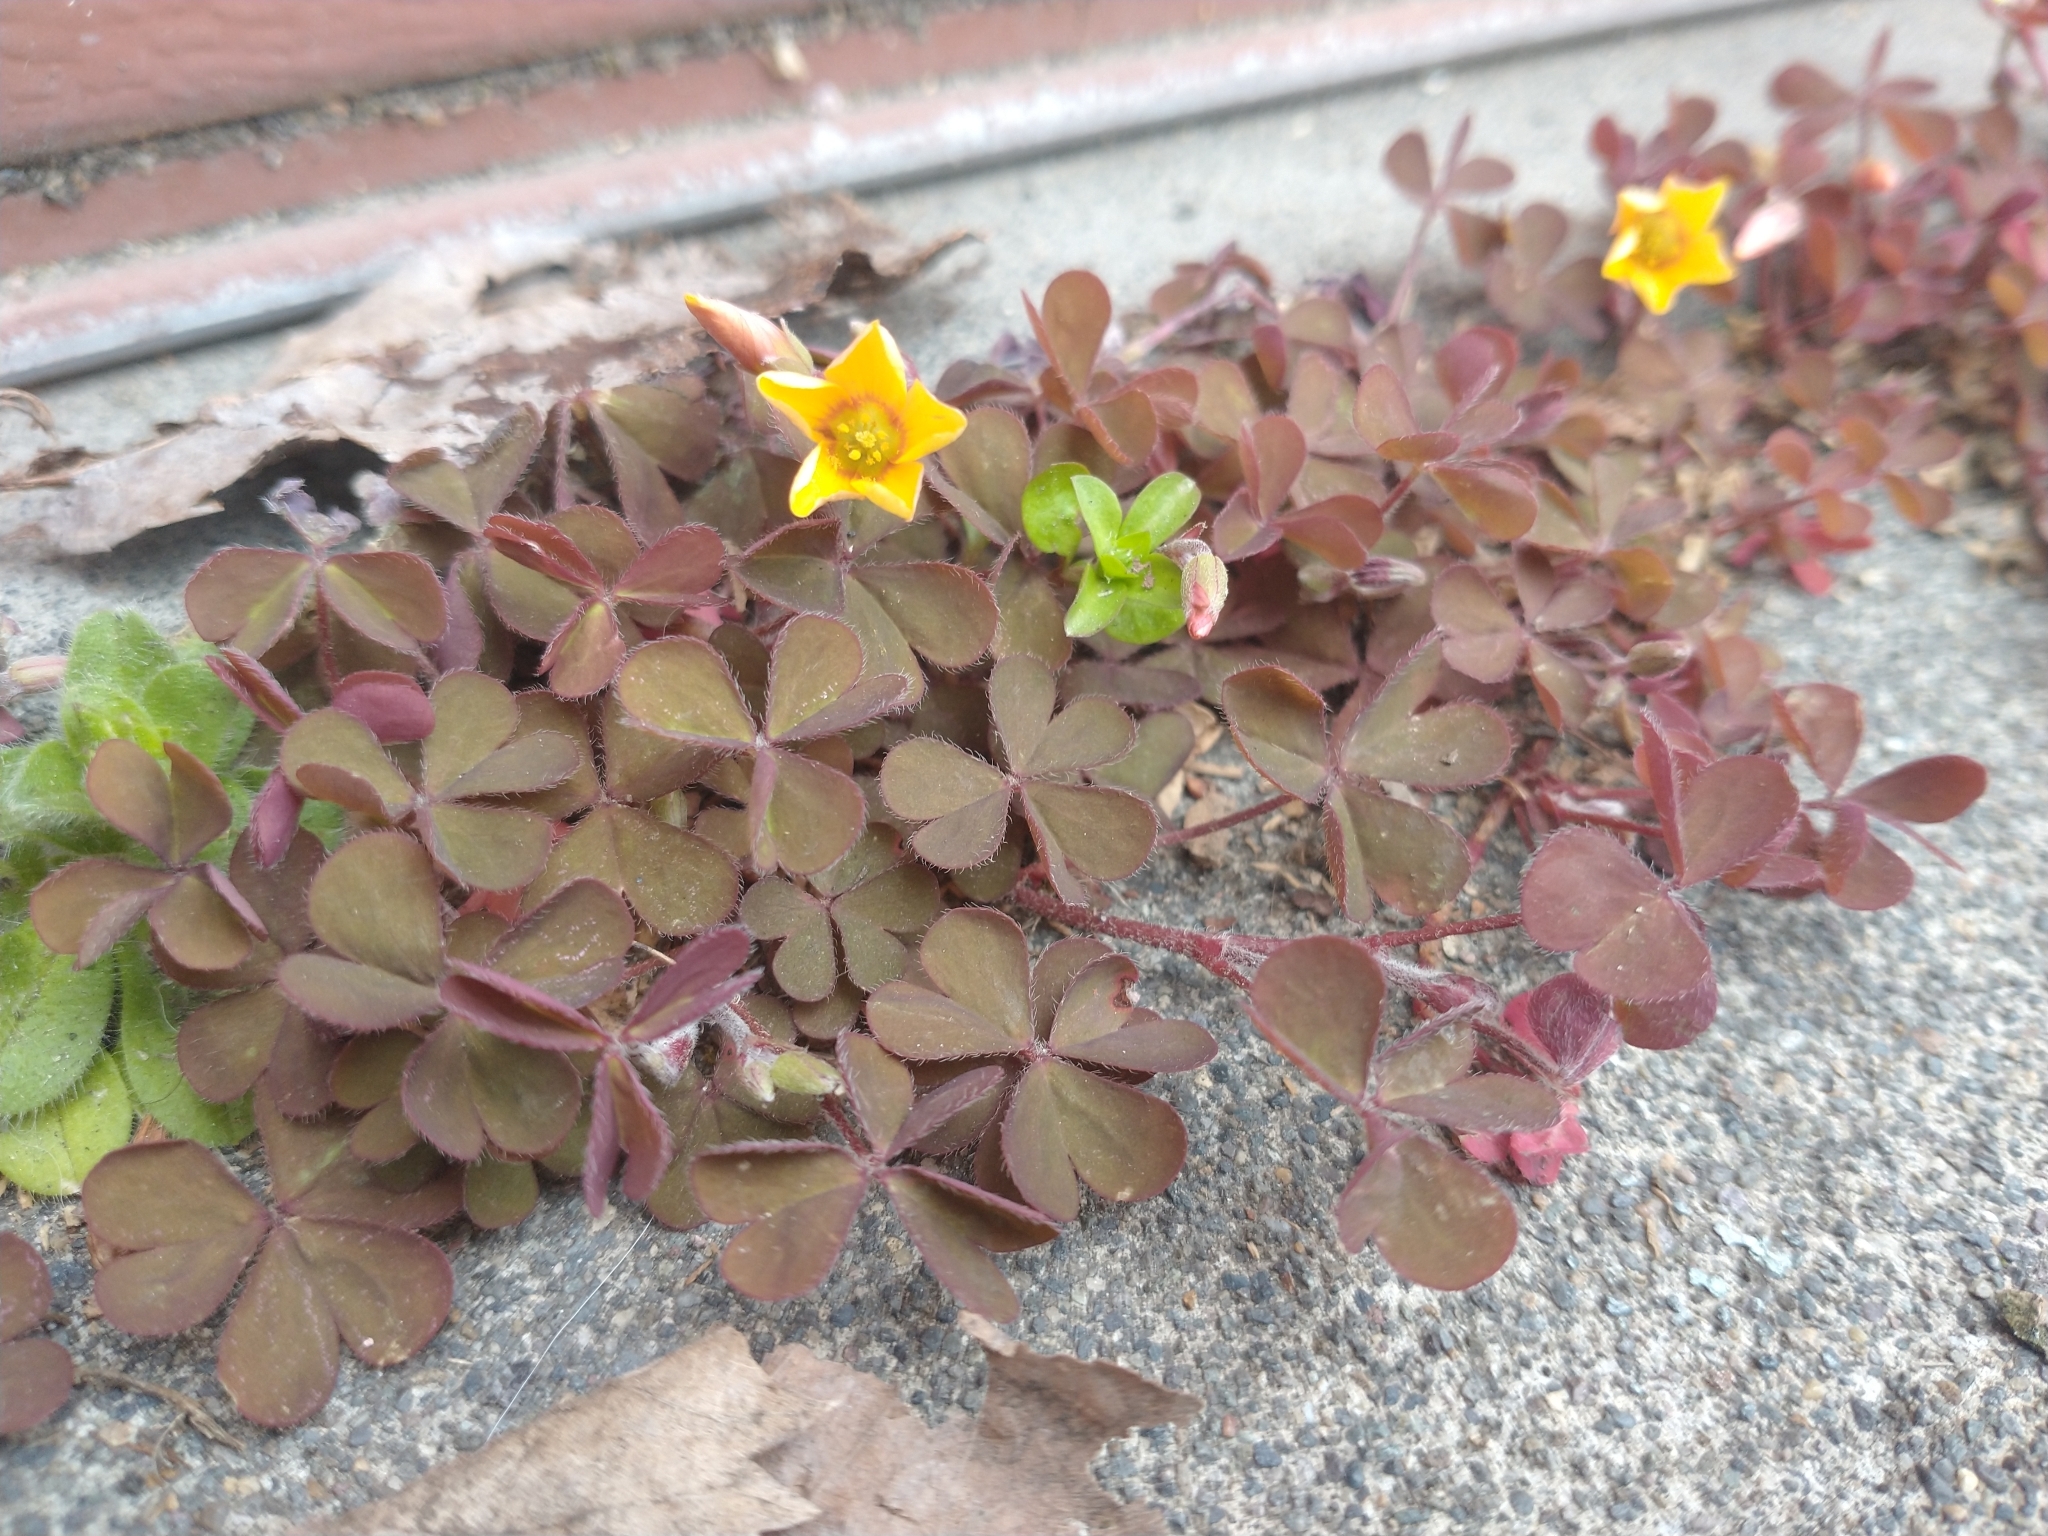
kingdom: Plantae
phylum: Tracheophyta
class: Magnoliopsida
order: Oxalidales
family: Oxalidaceae
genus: Oxalis
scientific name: Oxalis corniculata
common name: Procumbent yellow-sorrel
